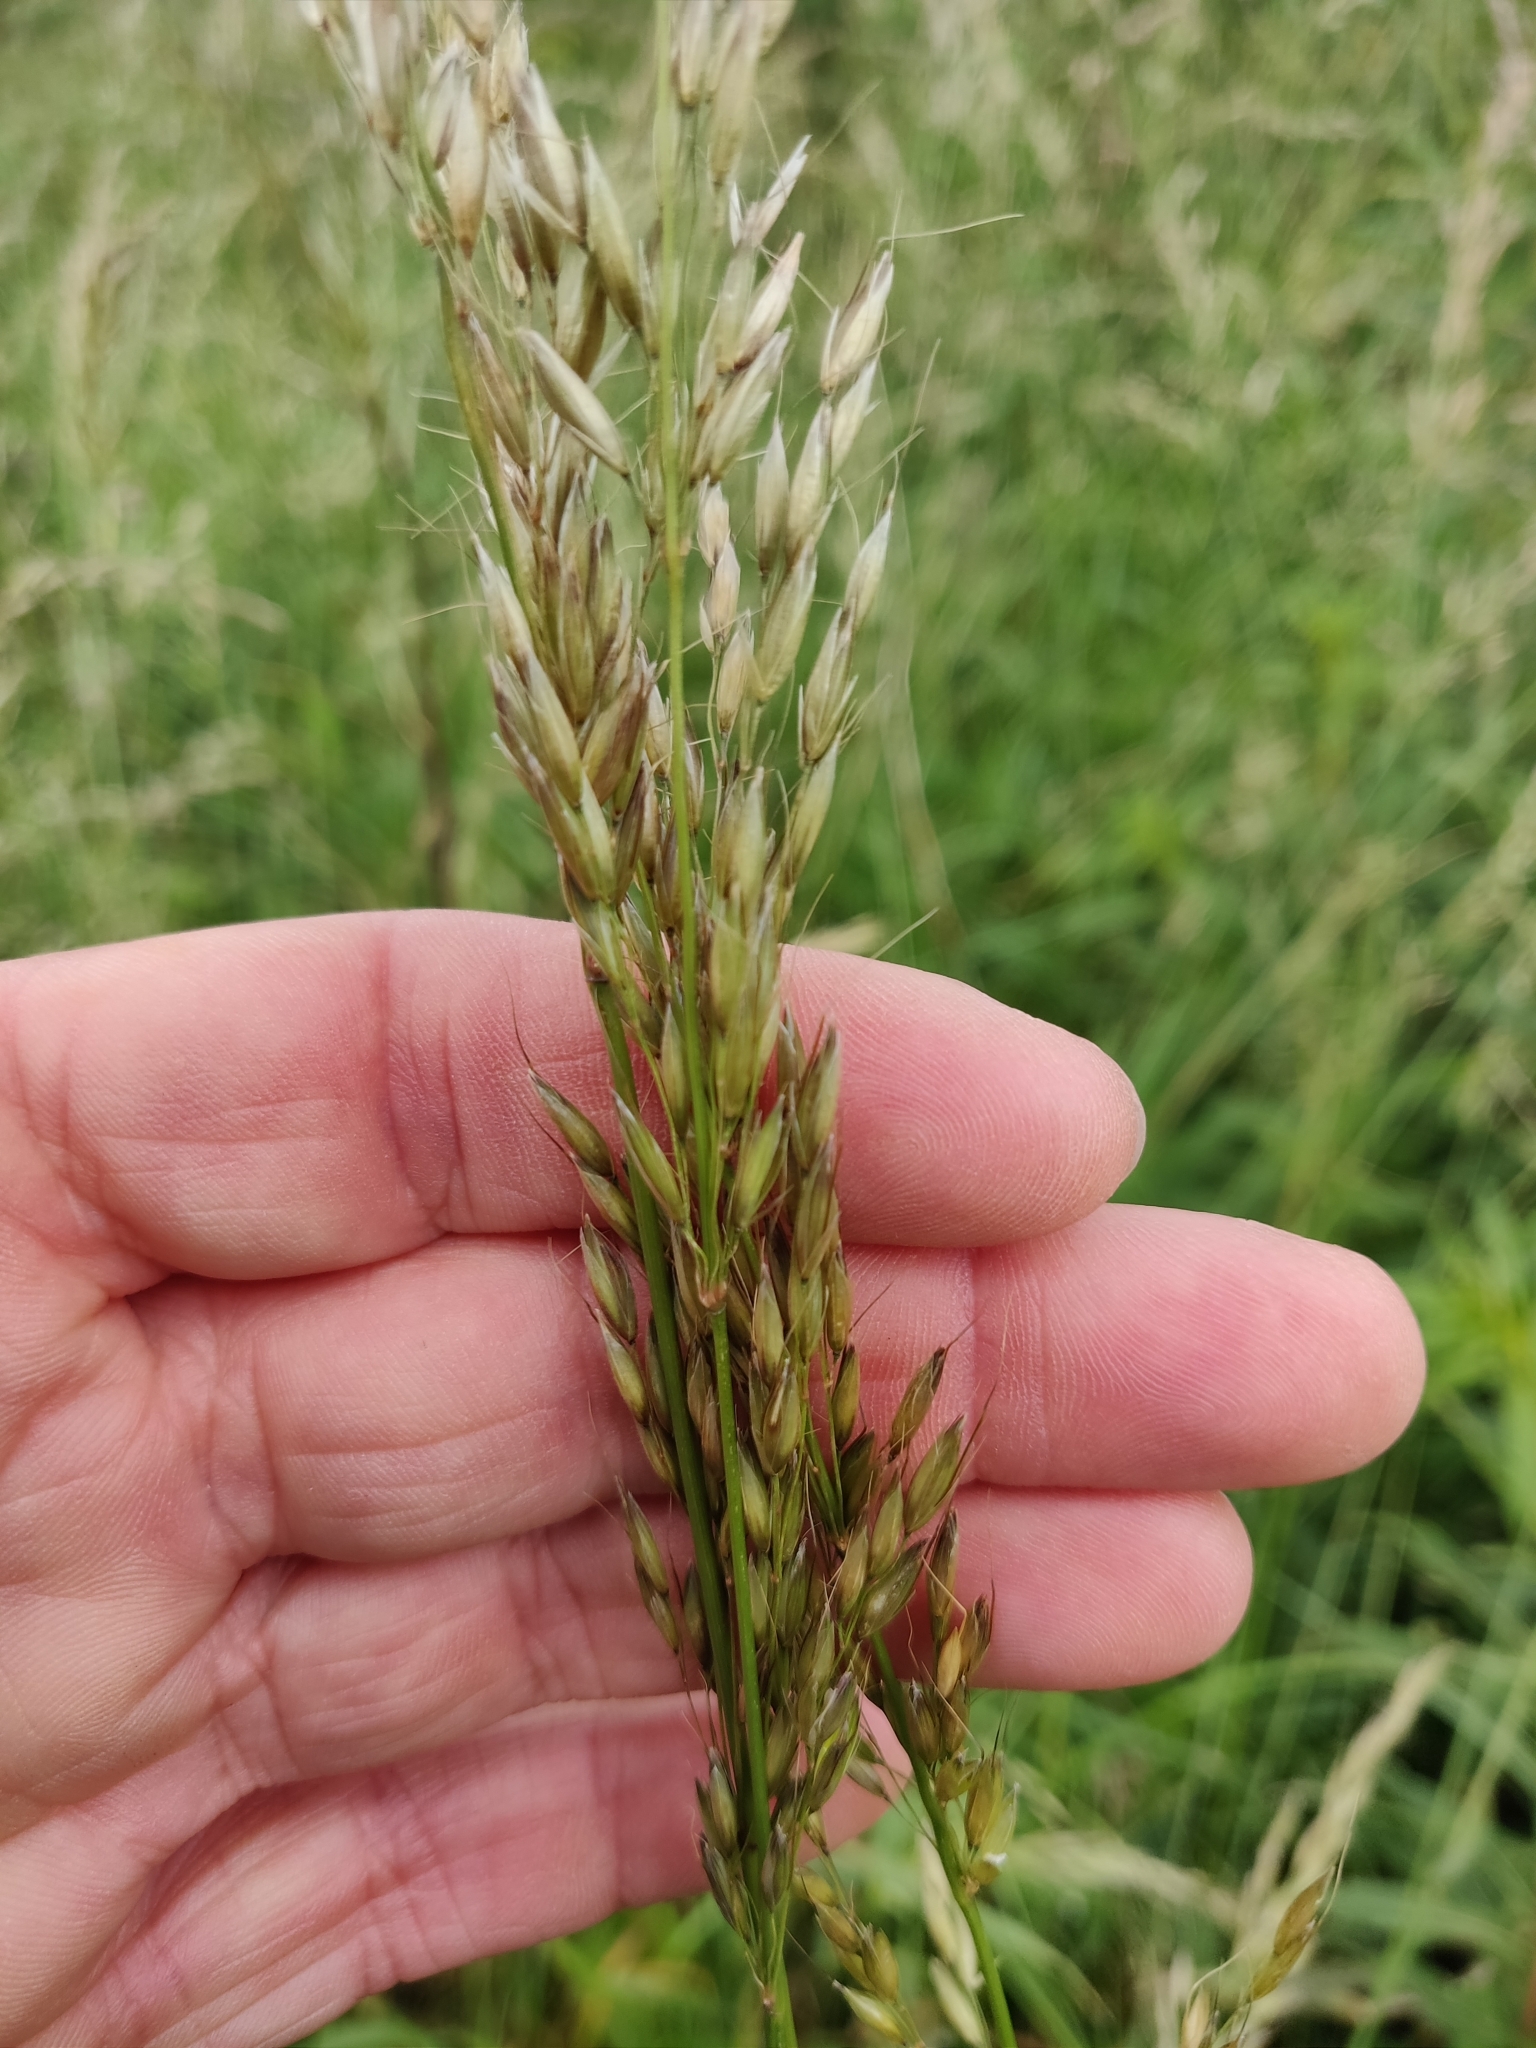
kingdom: Plantae
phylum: Tracheophyta
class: Liliopsida
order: Poales
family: Poaceae
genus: Arrhenatherum
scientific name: Arrhenatherum elatius
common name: Tall oatgrass
